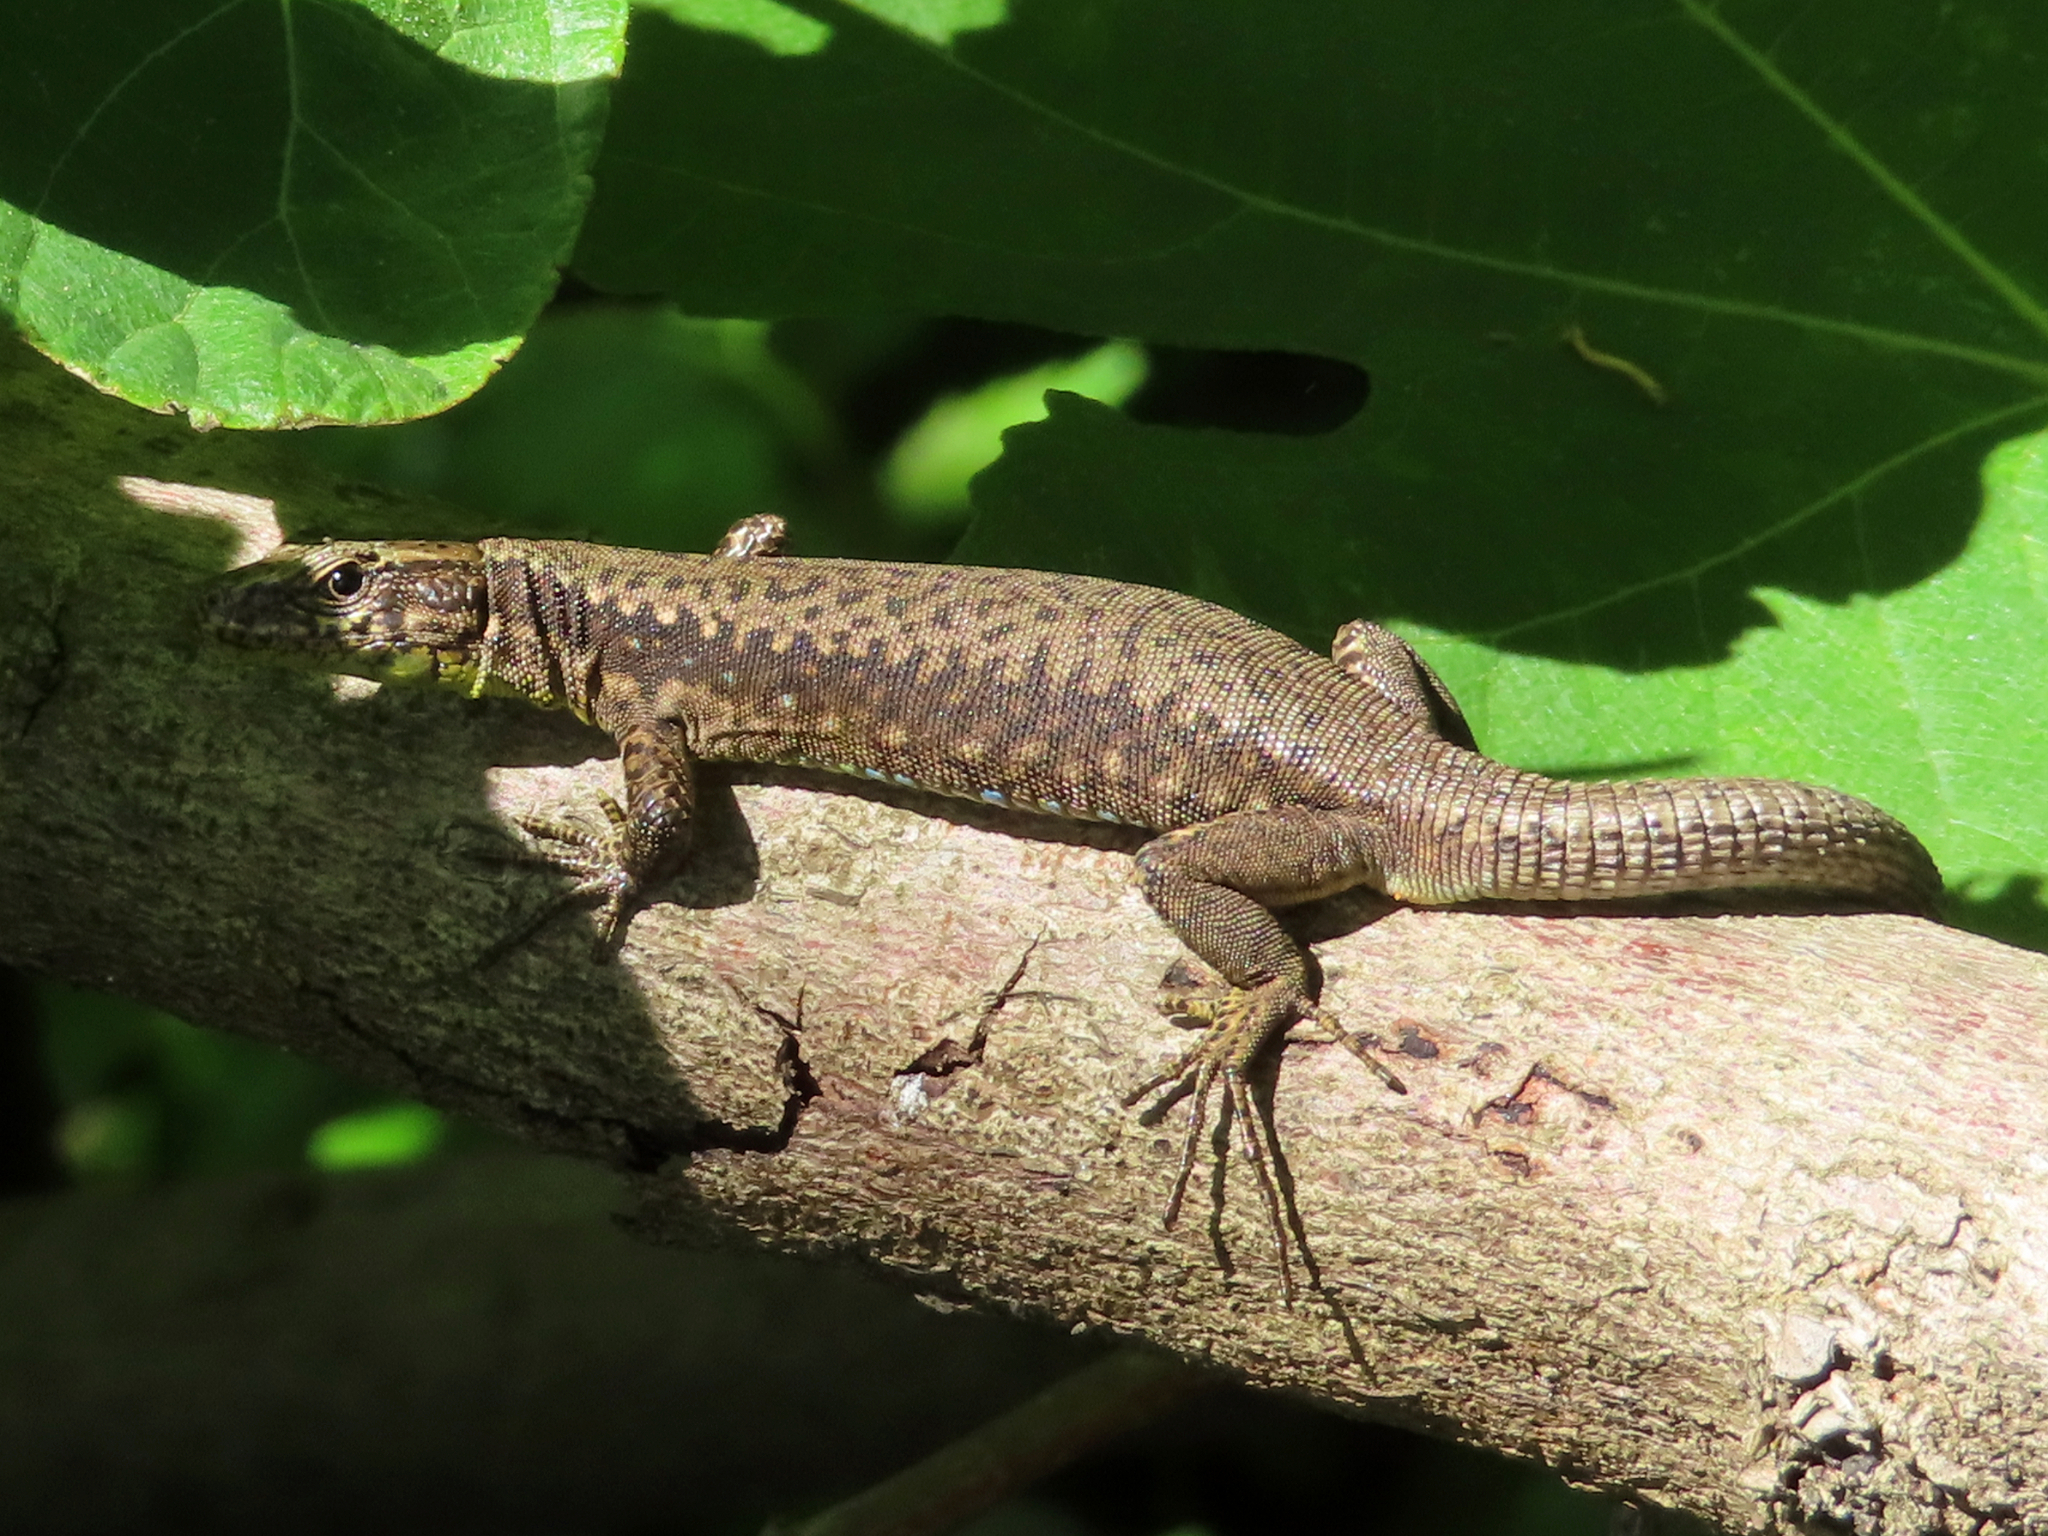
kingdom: Animalia
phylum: Chordata
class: Squamata
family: Lacertidae
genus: Darevskia
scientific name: Darevskia mixta
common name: Ajarian lizard
